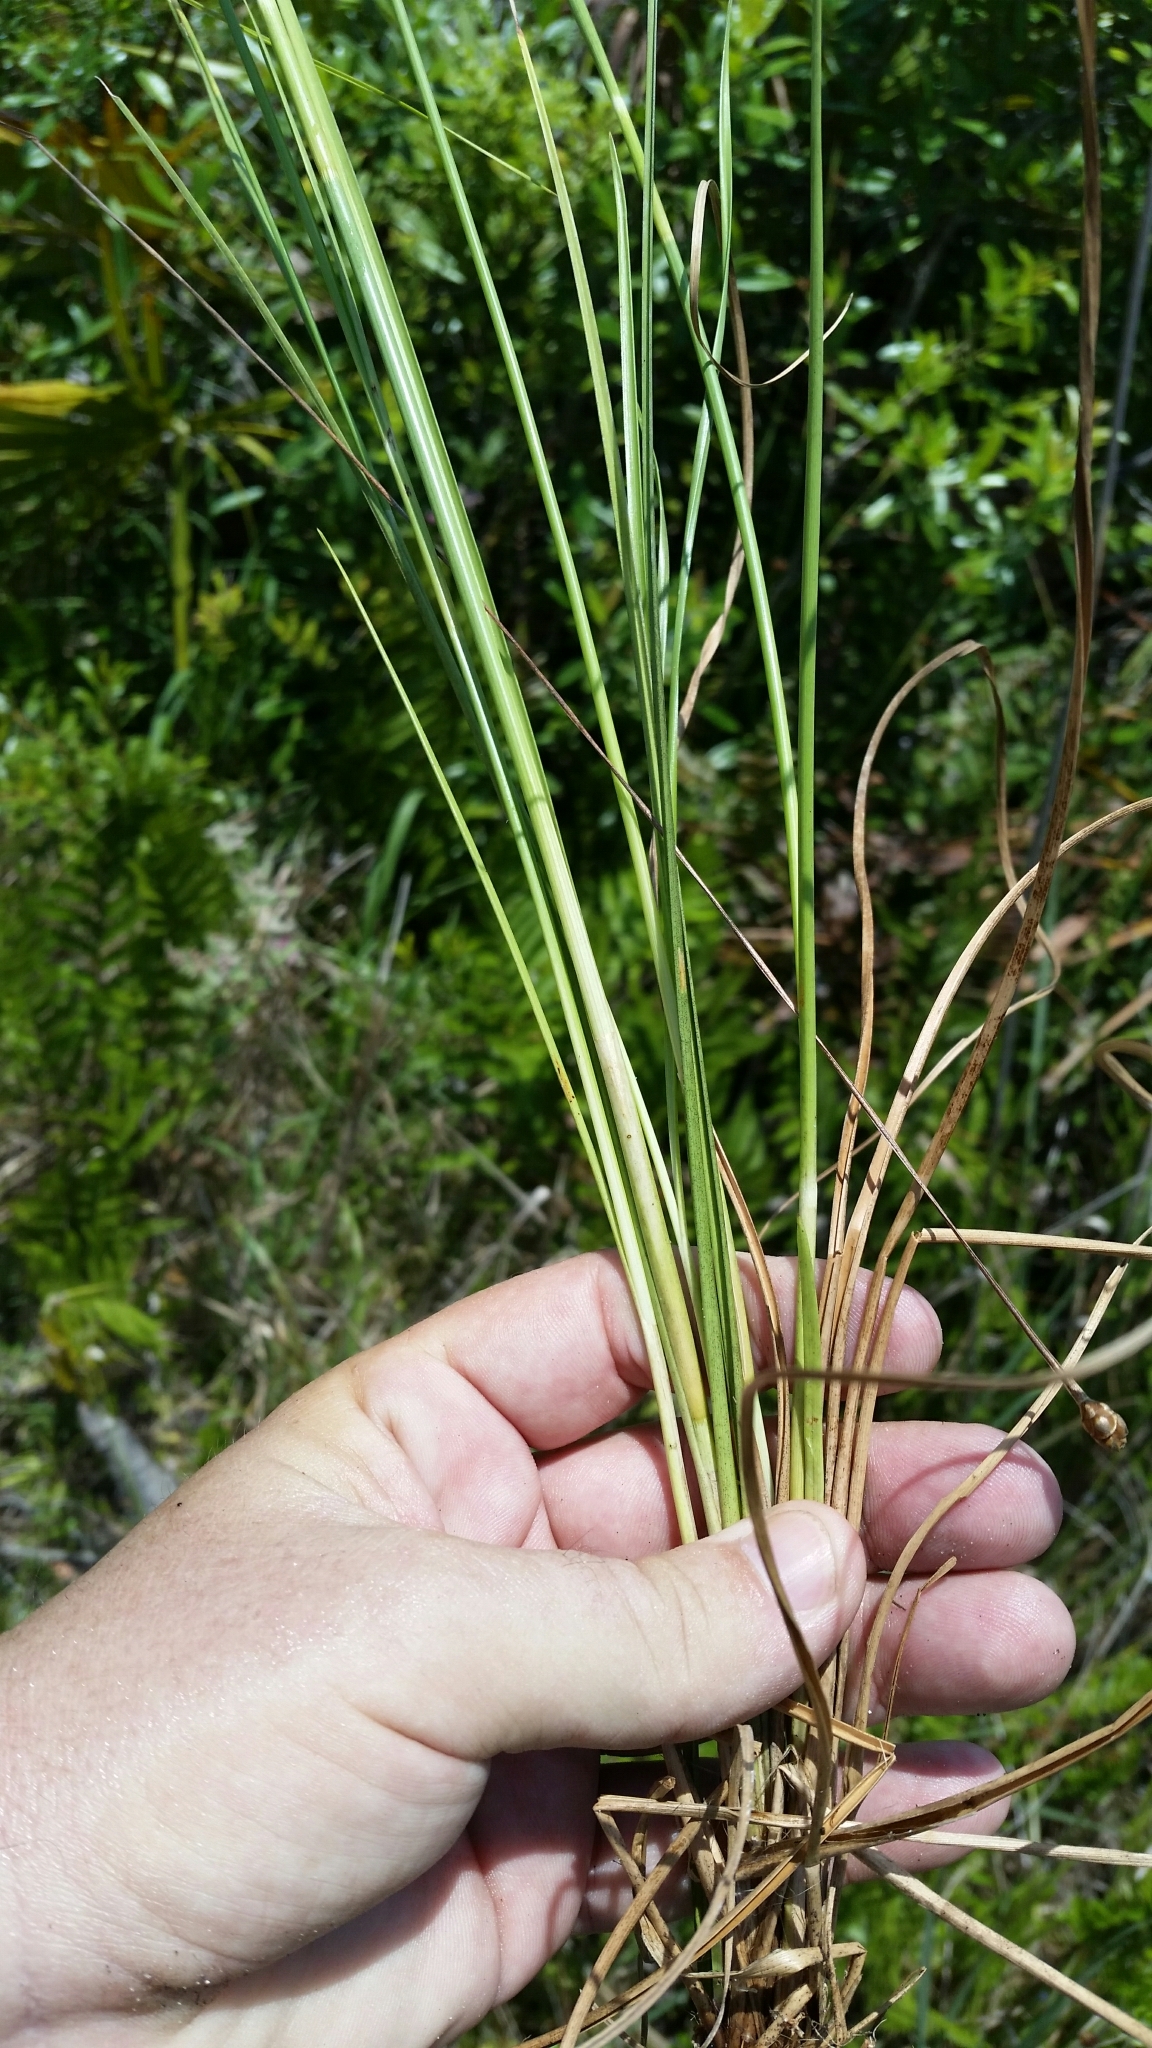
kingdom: Plantae
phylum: Tracheophyta
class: Liliopsida
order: Poales
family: Cyperaceae
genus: Rhynchospora
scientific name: Rhynchospora fascicularis
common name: Fascicled beak sedge
